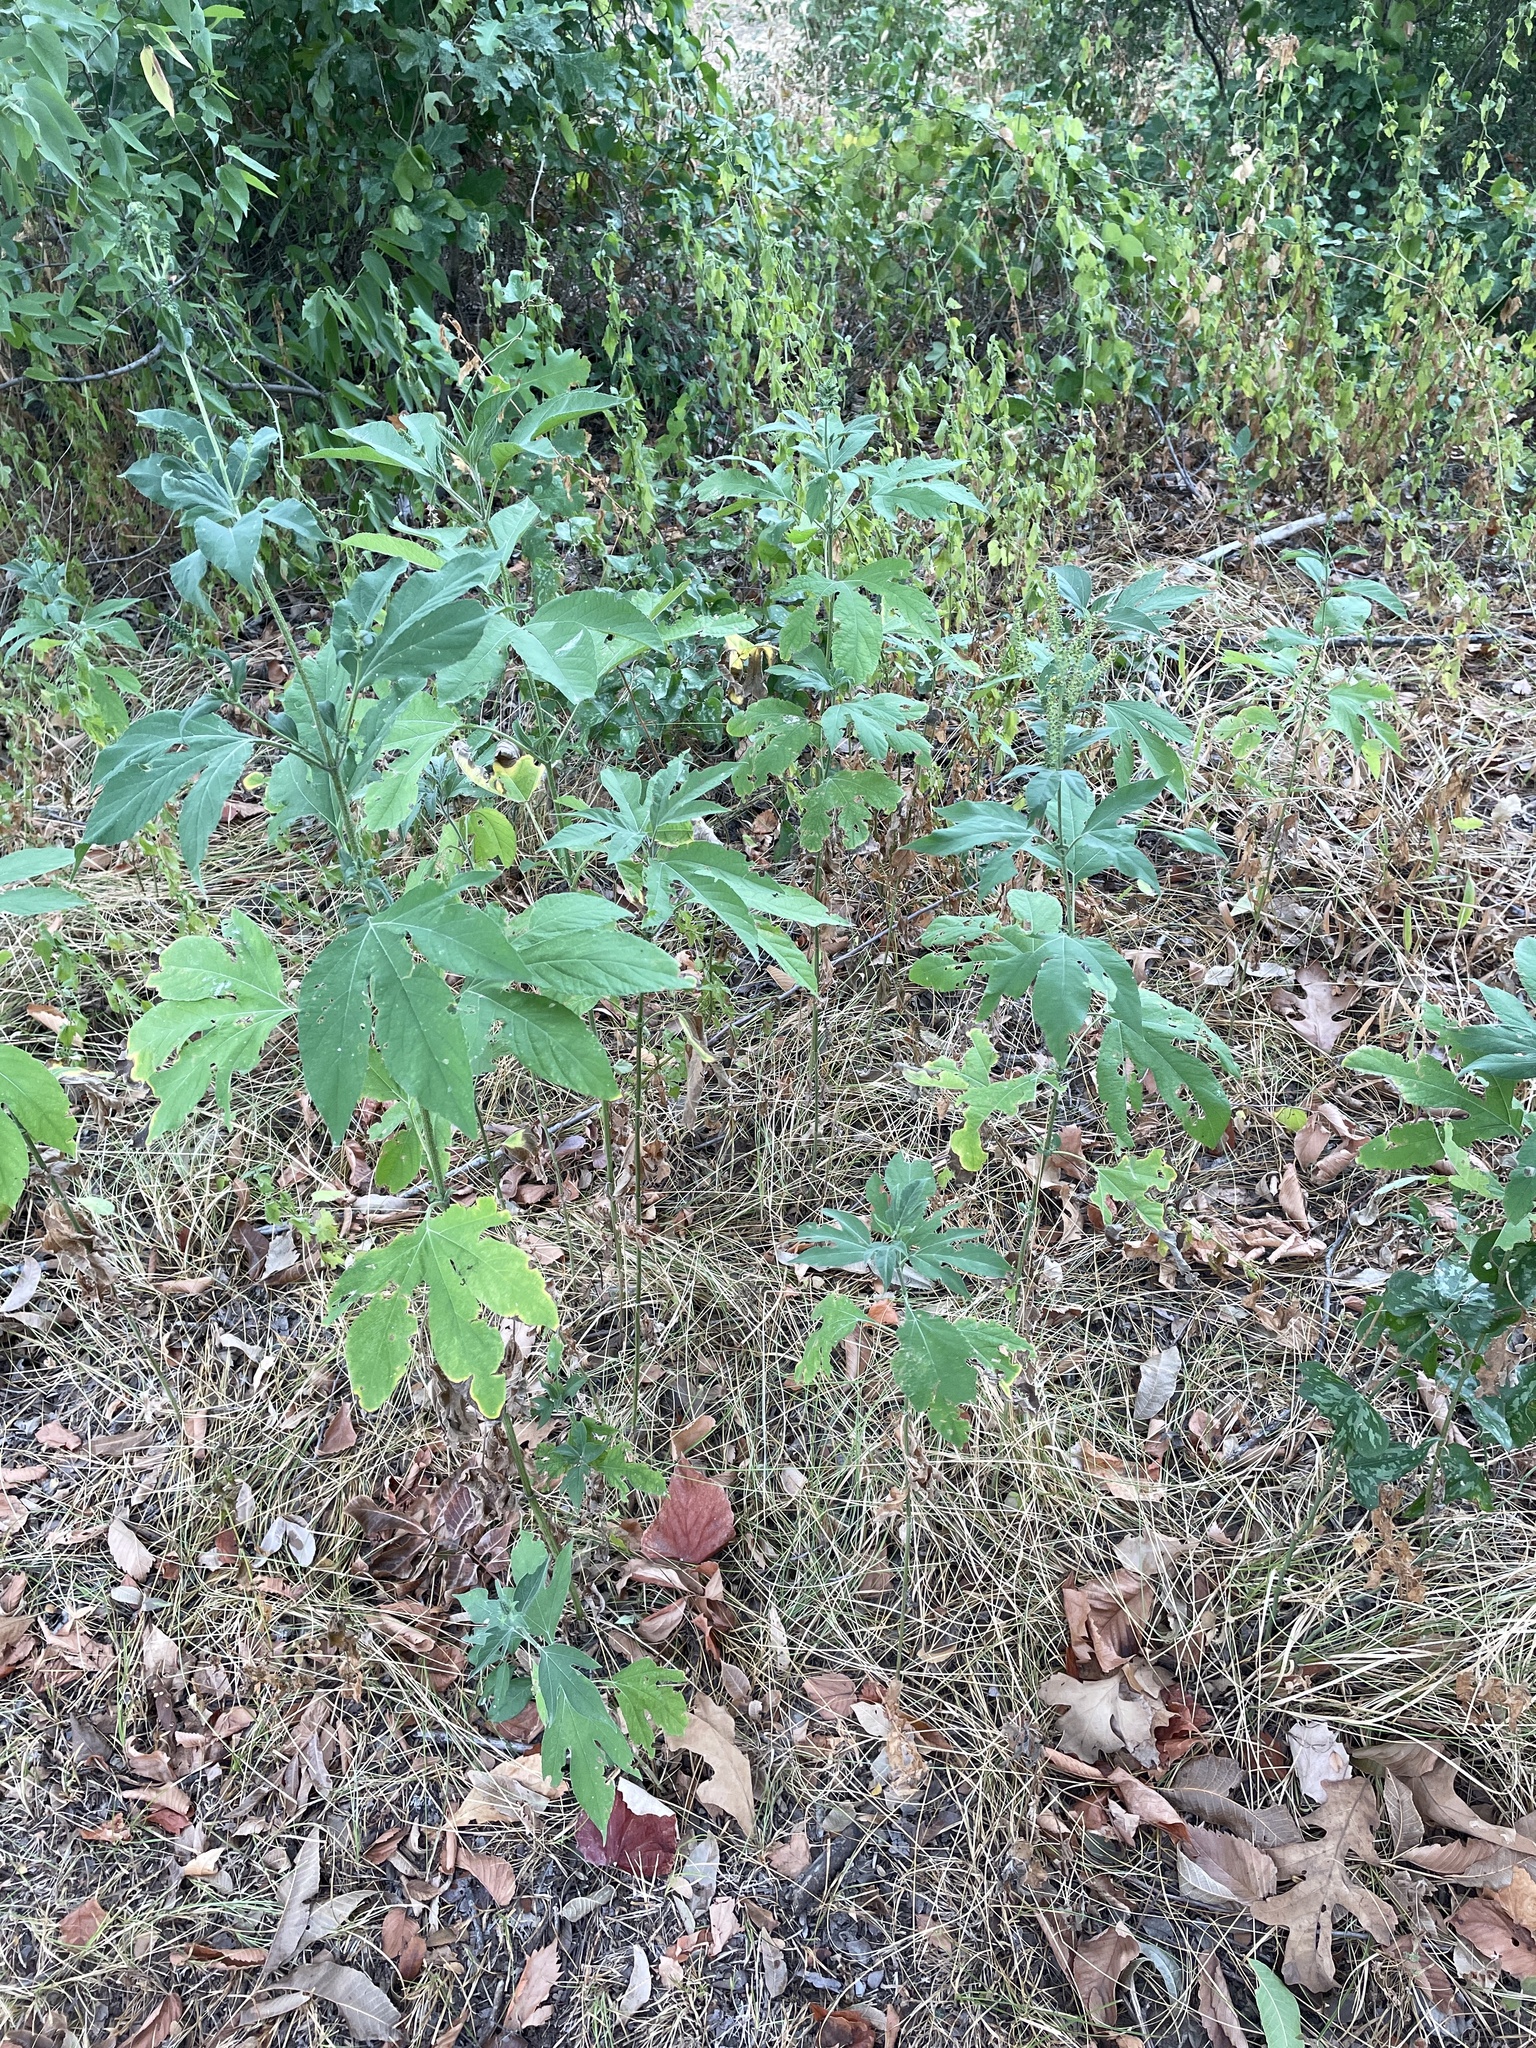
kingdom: Plantae
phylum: Tracheophyta
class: Magnoliopsida
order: Asterales
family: Asteraceae
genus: Ambrosia
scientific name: Ambrosia trifida
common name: Giant ragweed
